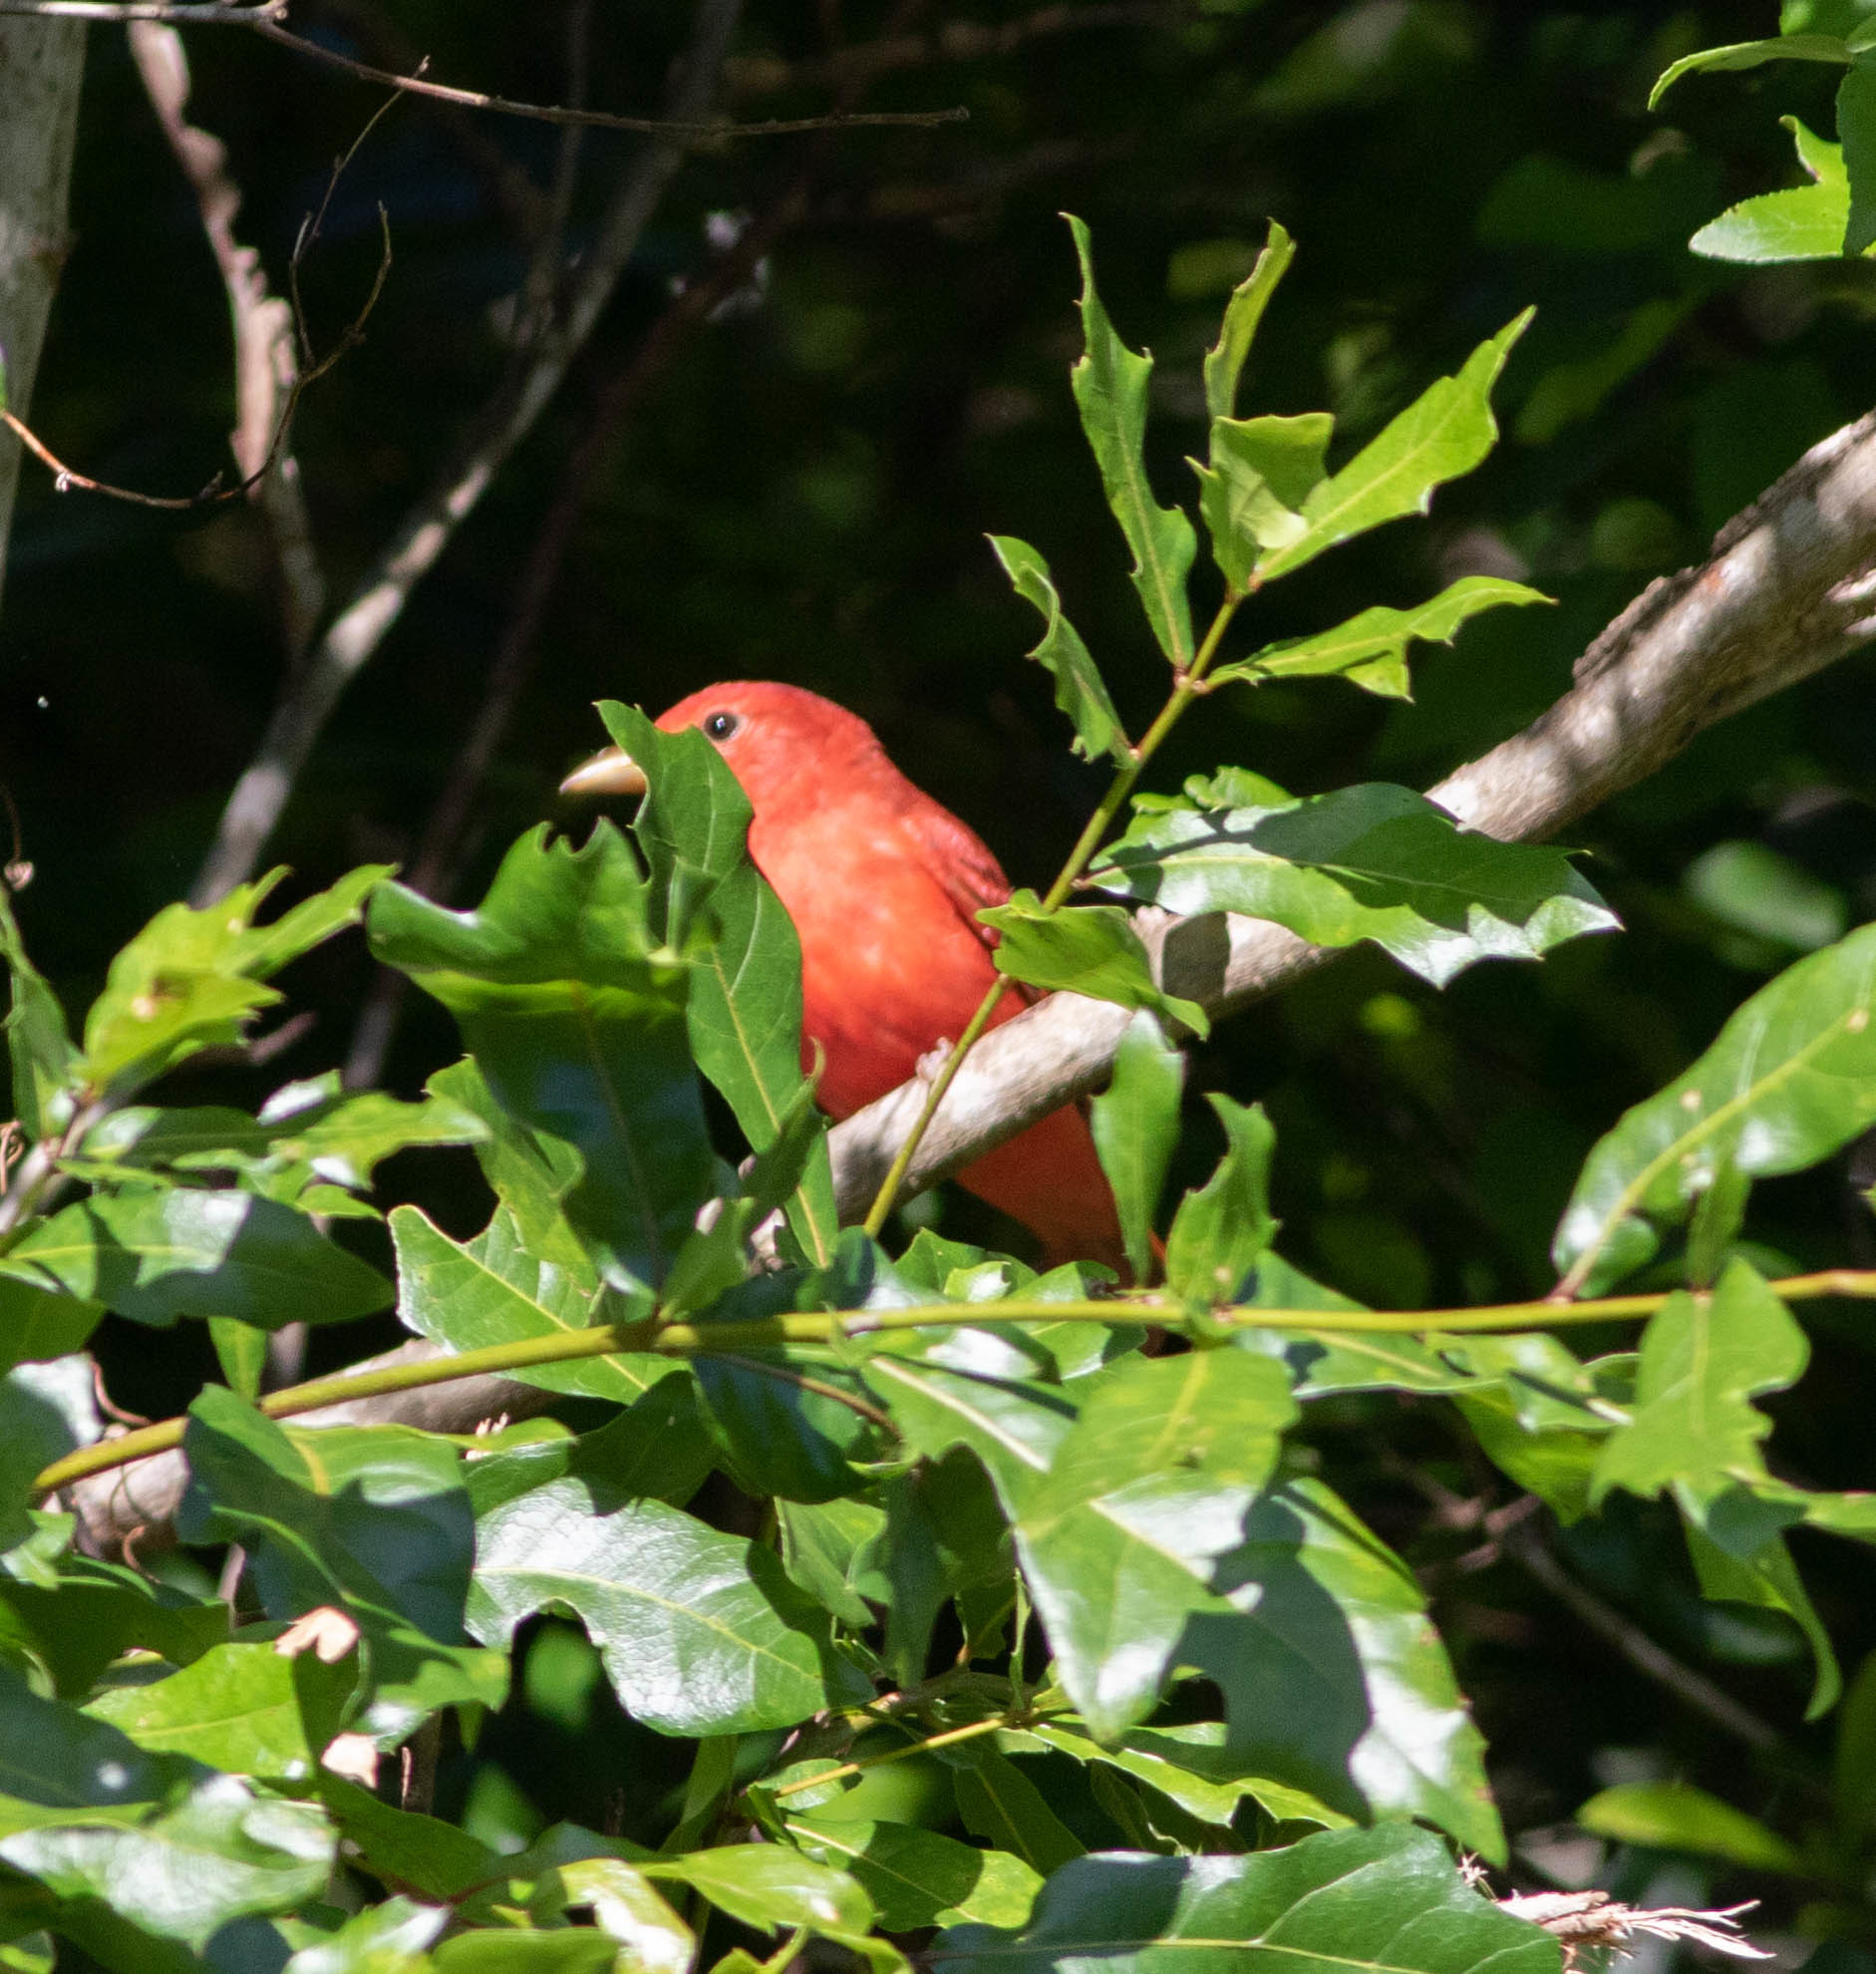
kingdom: Animalia
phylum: Chordata
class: Aves
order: Passeriformes
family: Cardinalidae
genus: Piranga
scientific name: Piranga rubra
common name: Summer tanager
